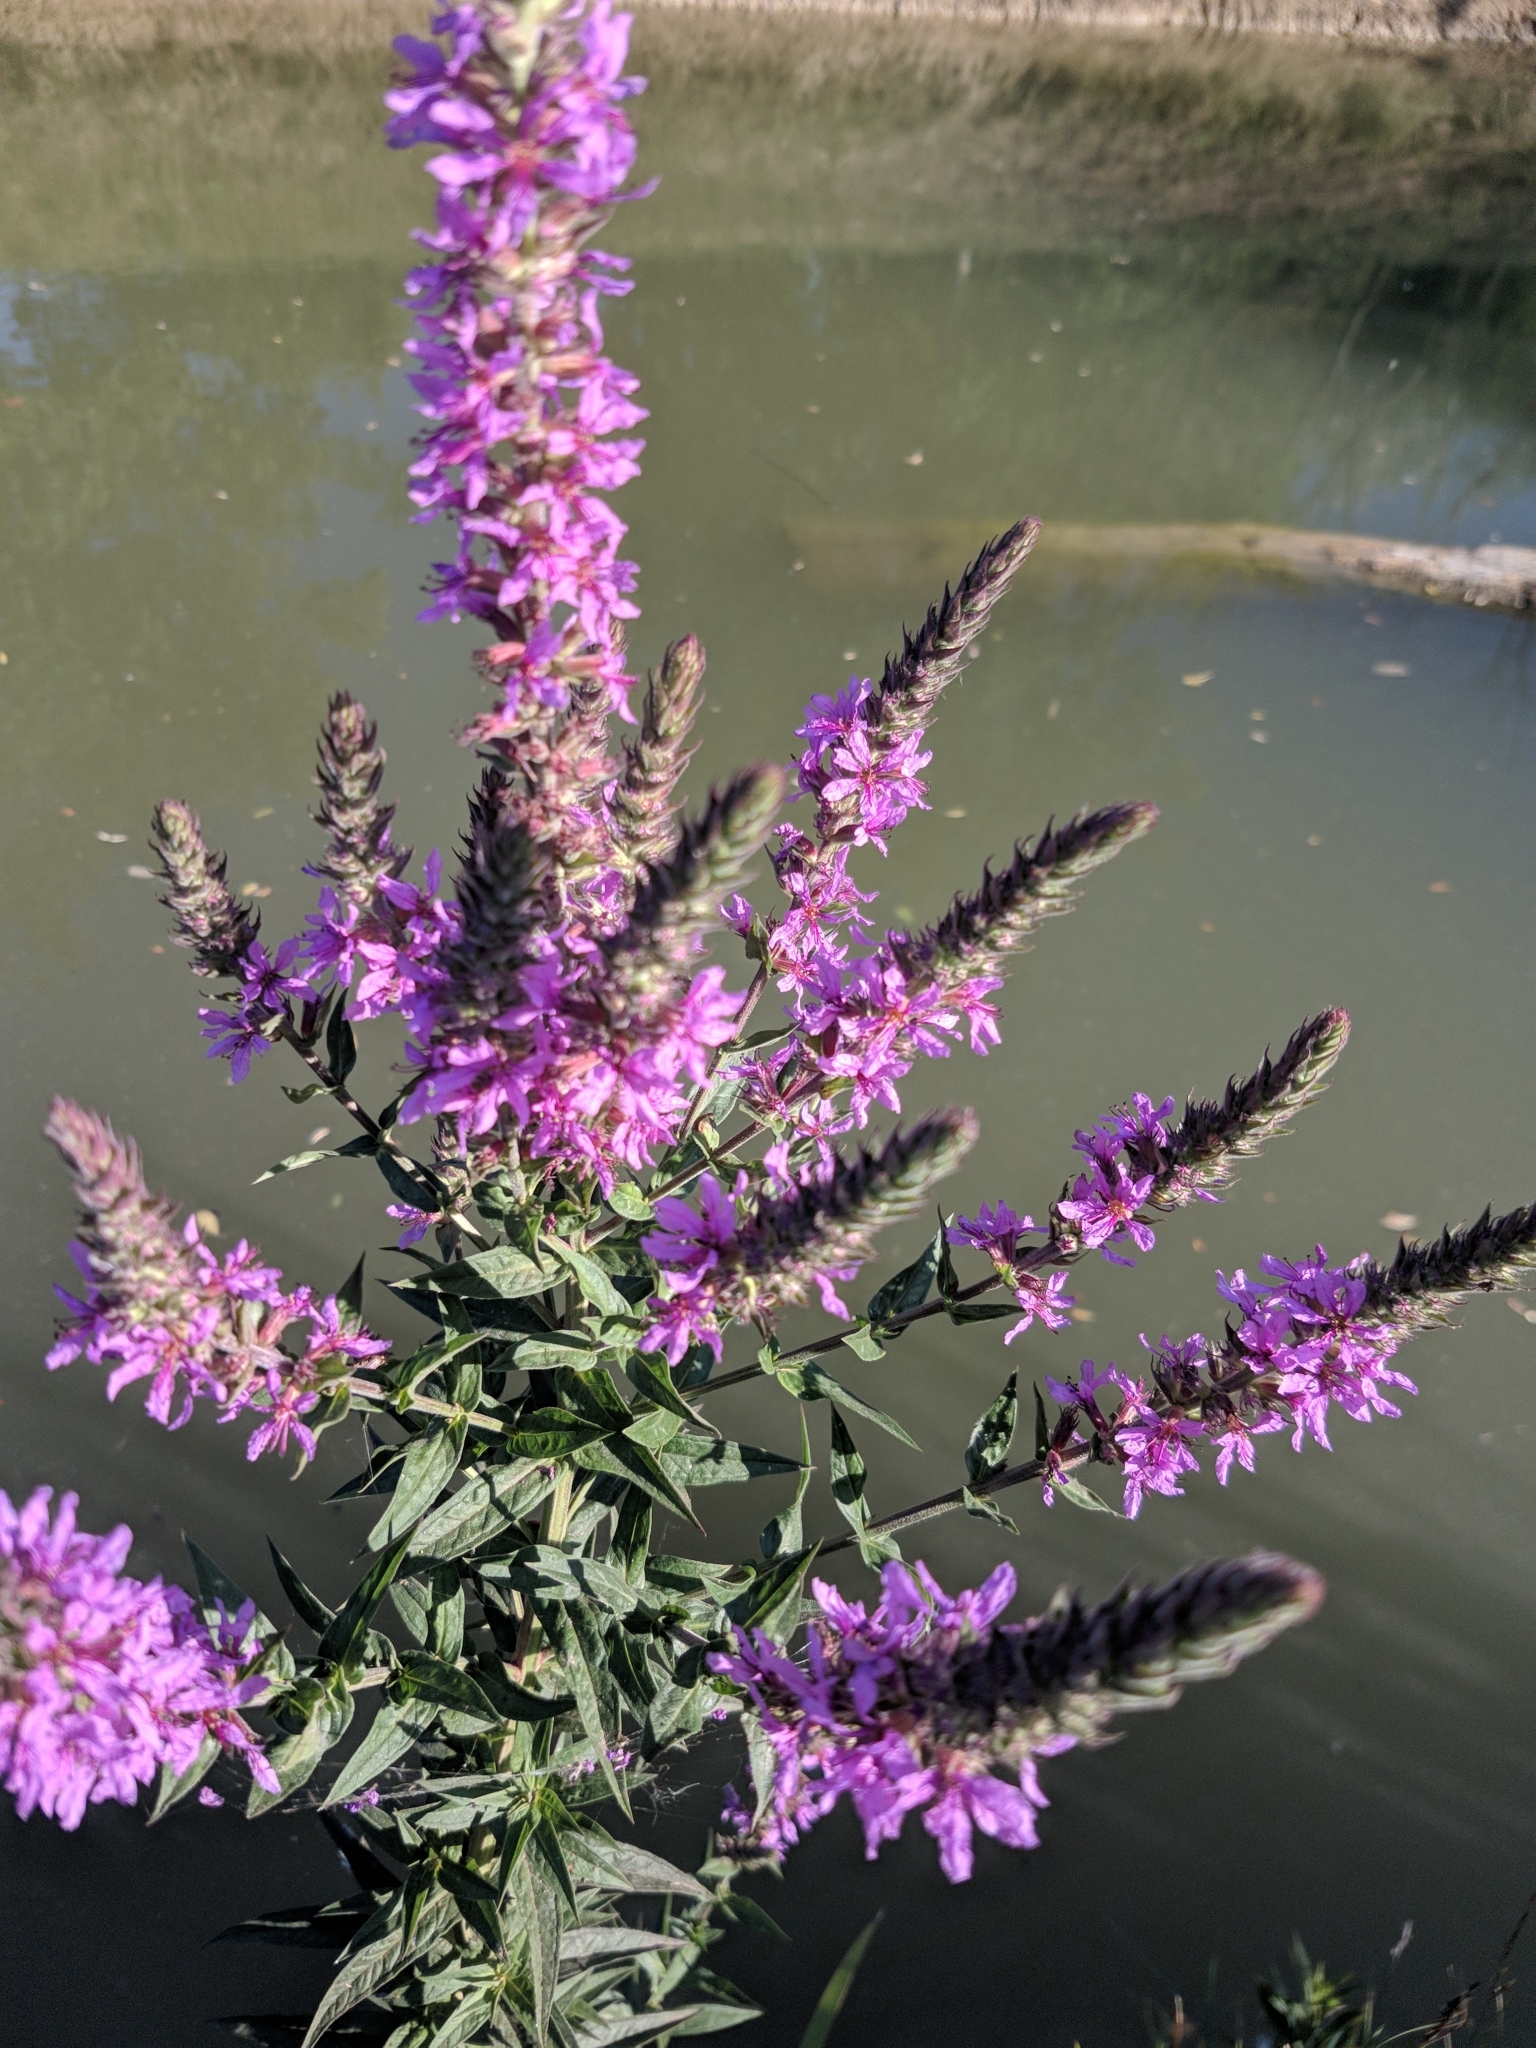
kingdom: Plantae
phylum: Tracheophyta
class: Magnoliopsida
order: Myrtales
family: Lythraceae
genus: Lythrum
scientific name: Lythrum salicaria
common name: Purple loosestrife
